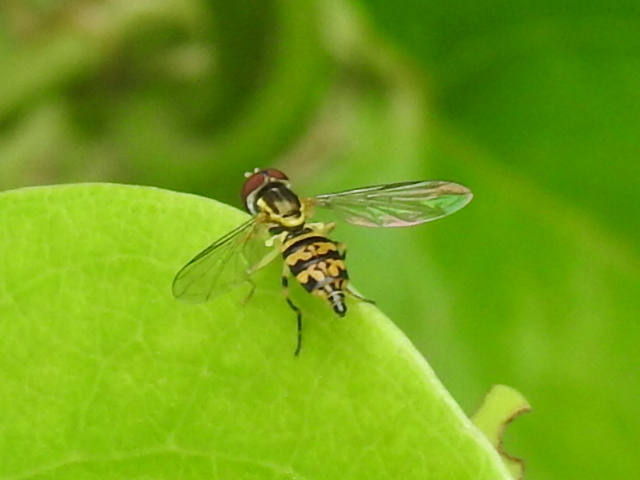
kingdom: Animalia
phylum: Arthropoda
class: Insecta
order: Diptera
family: Syrphidae
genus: Toxomerus
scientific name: Toxomerus geminatus
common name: Eastern calligrapher
